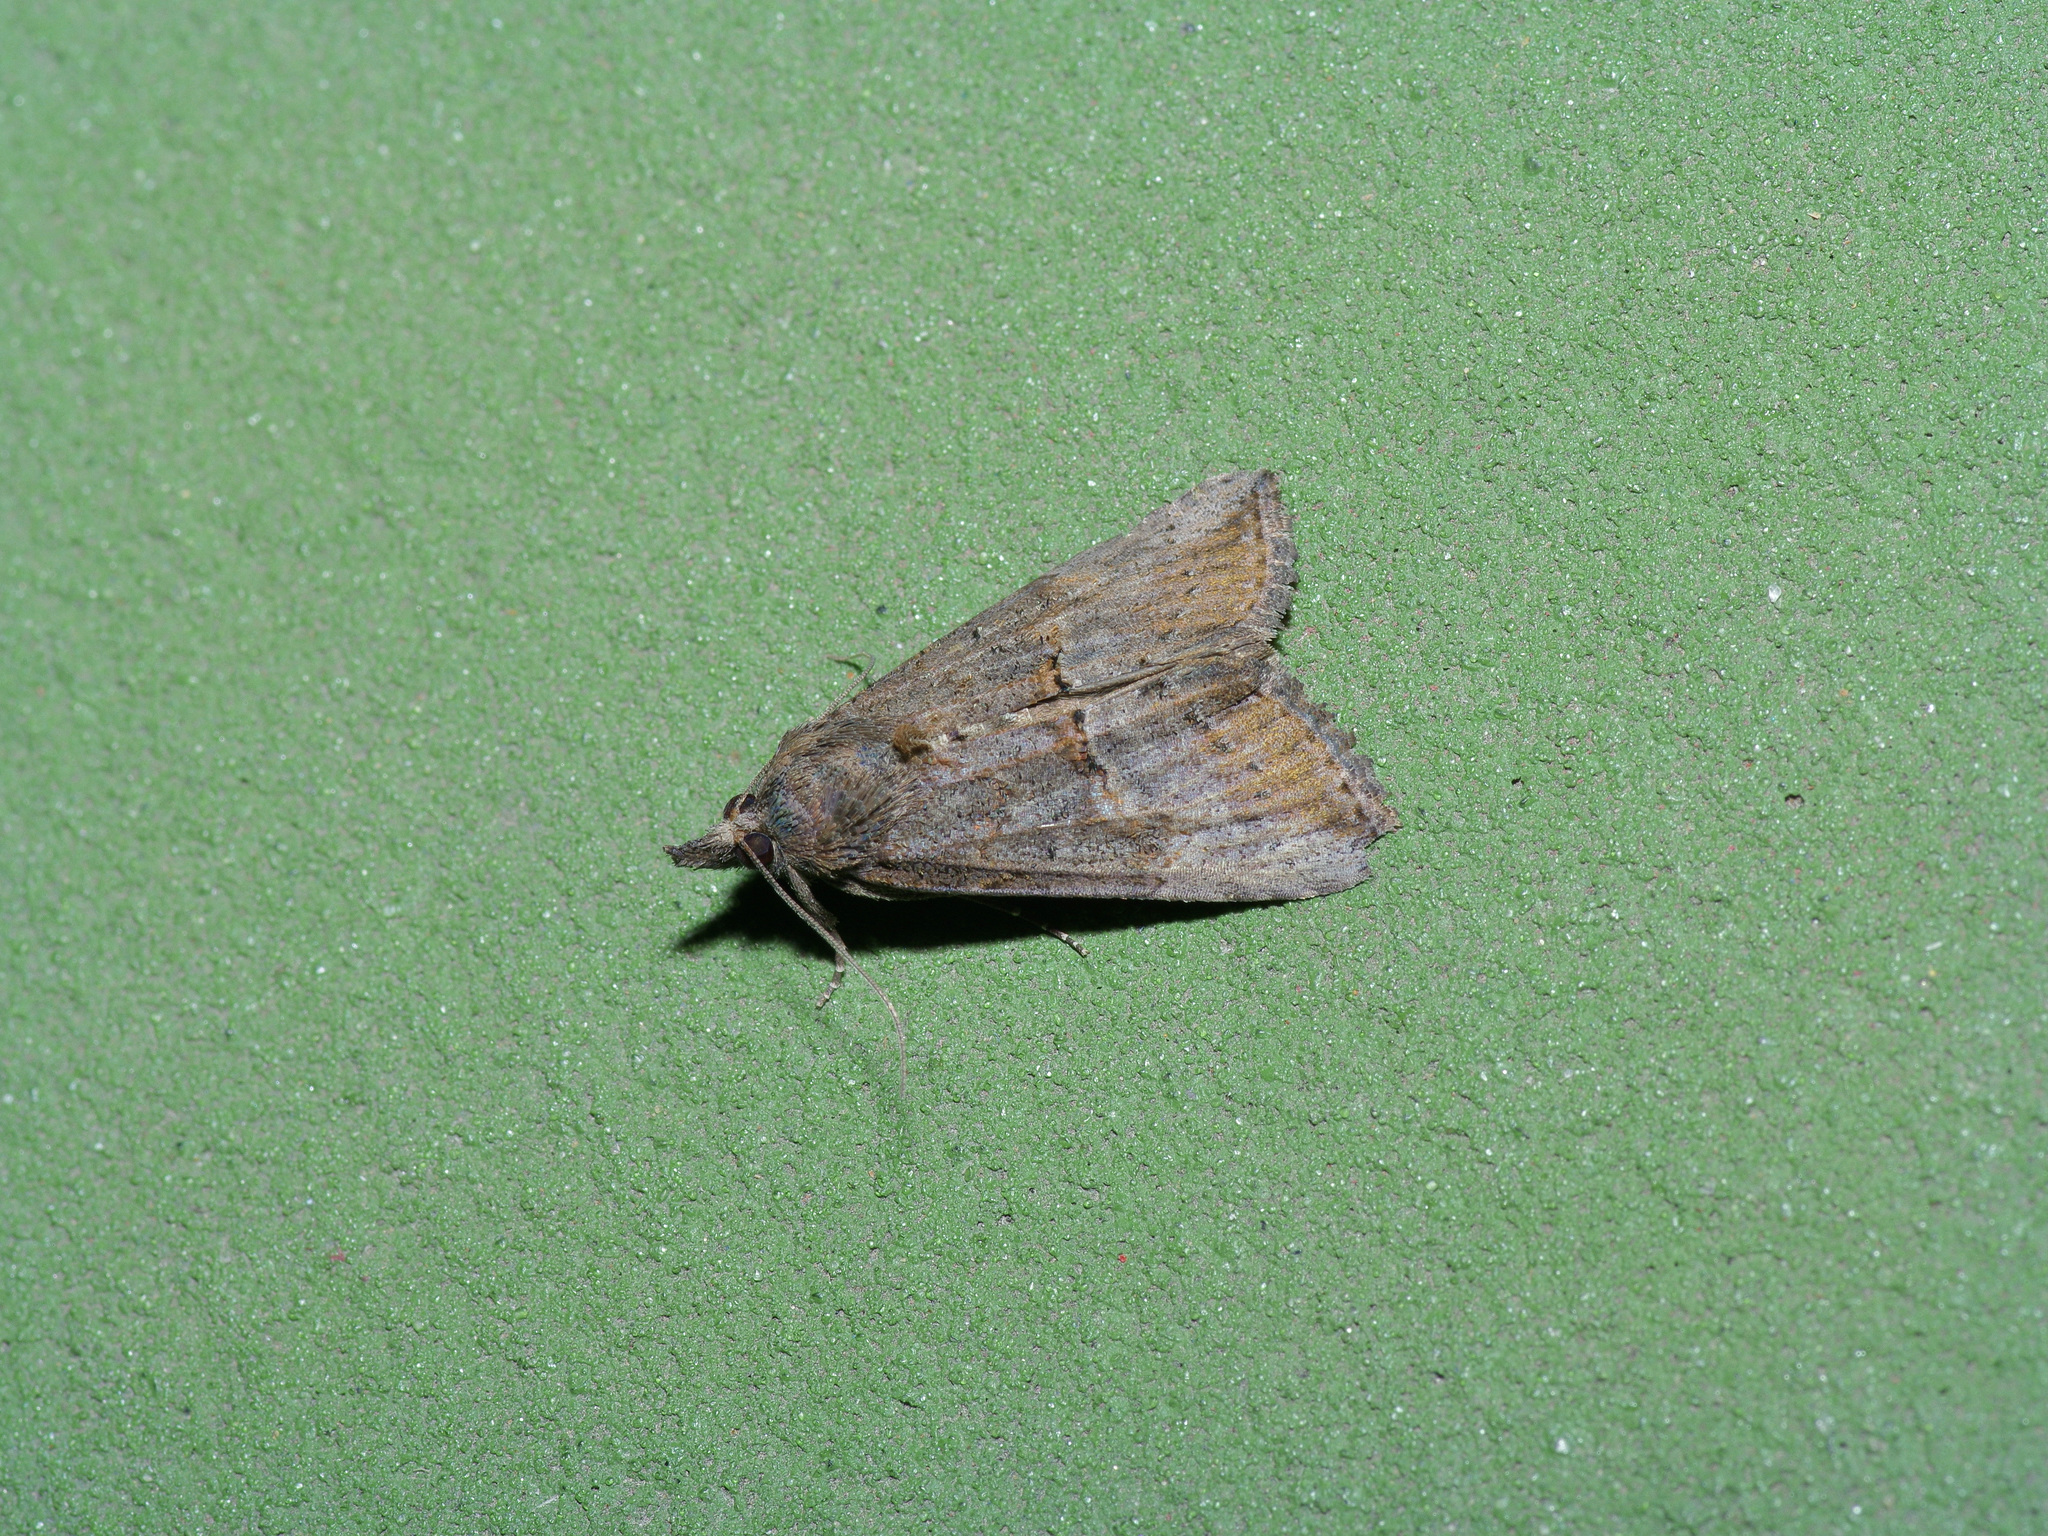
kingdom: Animalia
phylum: Arthropoda
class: Insecta
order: Lepidoptera
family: Erebidae
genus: Hypena
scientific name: Hypena scabra
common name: Green cloverworm
